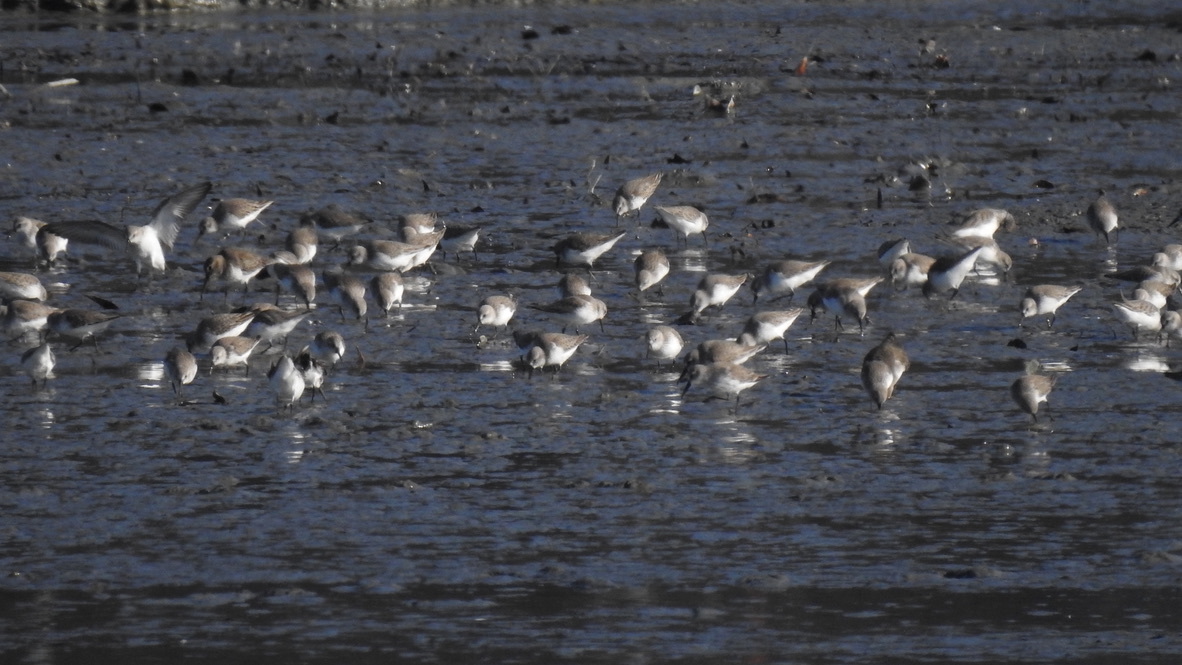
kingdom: Animalia
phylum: Chordata
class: Aves
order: Charadriiformes
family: Scolopacidae
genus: Calidris
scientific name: Calidris alpina
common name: Dunlin
